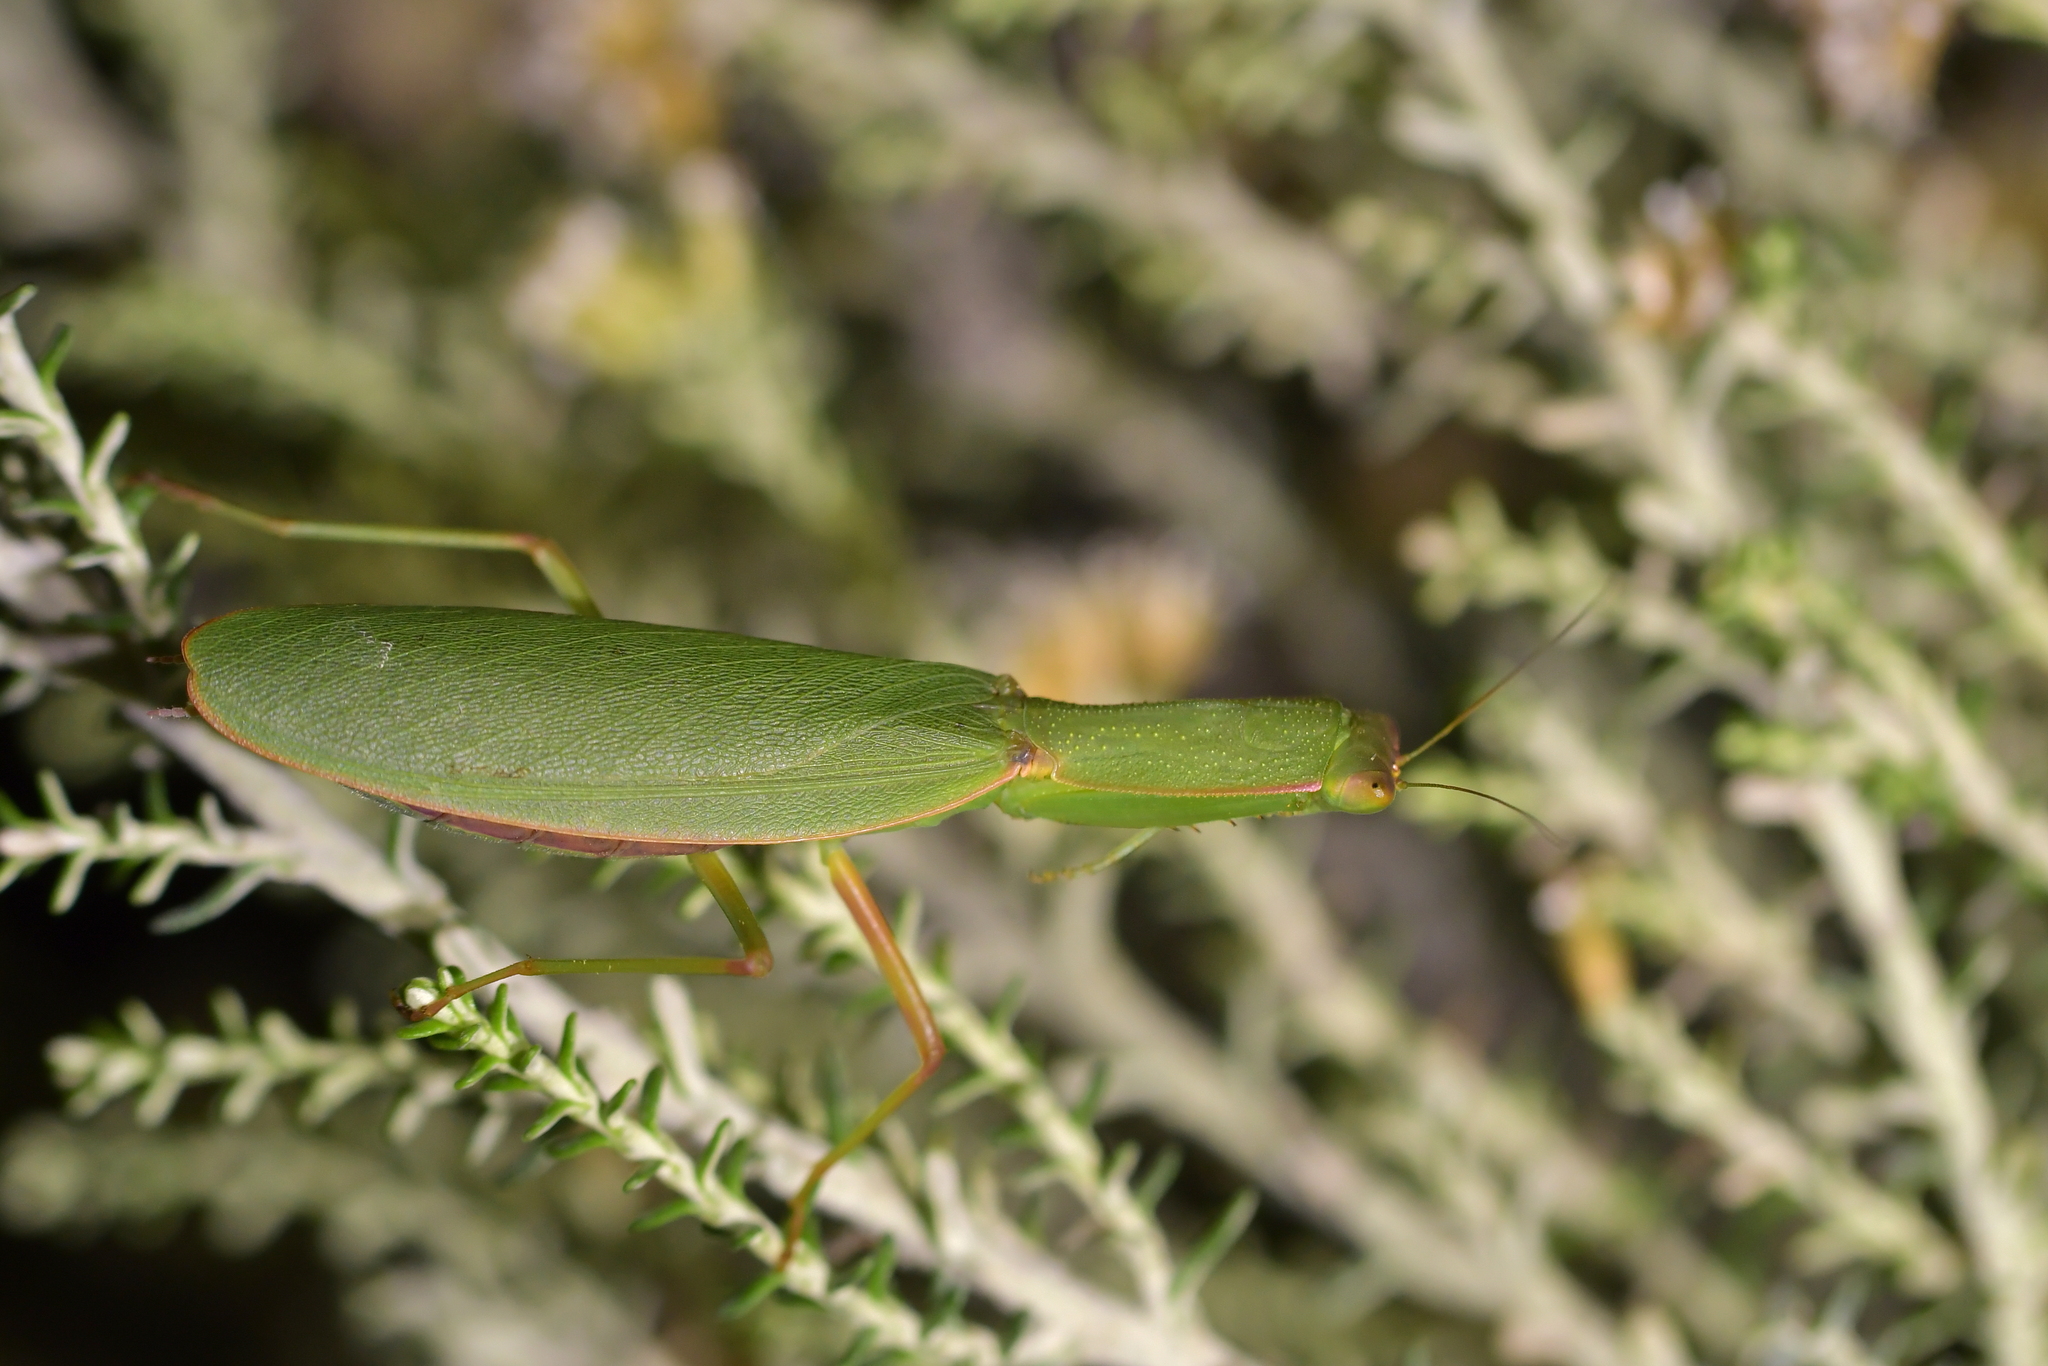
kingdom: Animalia
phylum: Arthropoda
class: Insecta
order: Mantodea
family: Mantidae
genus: Orthodera
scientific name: Orthodera novaezealandiae
